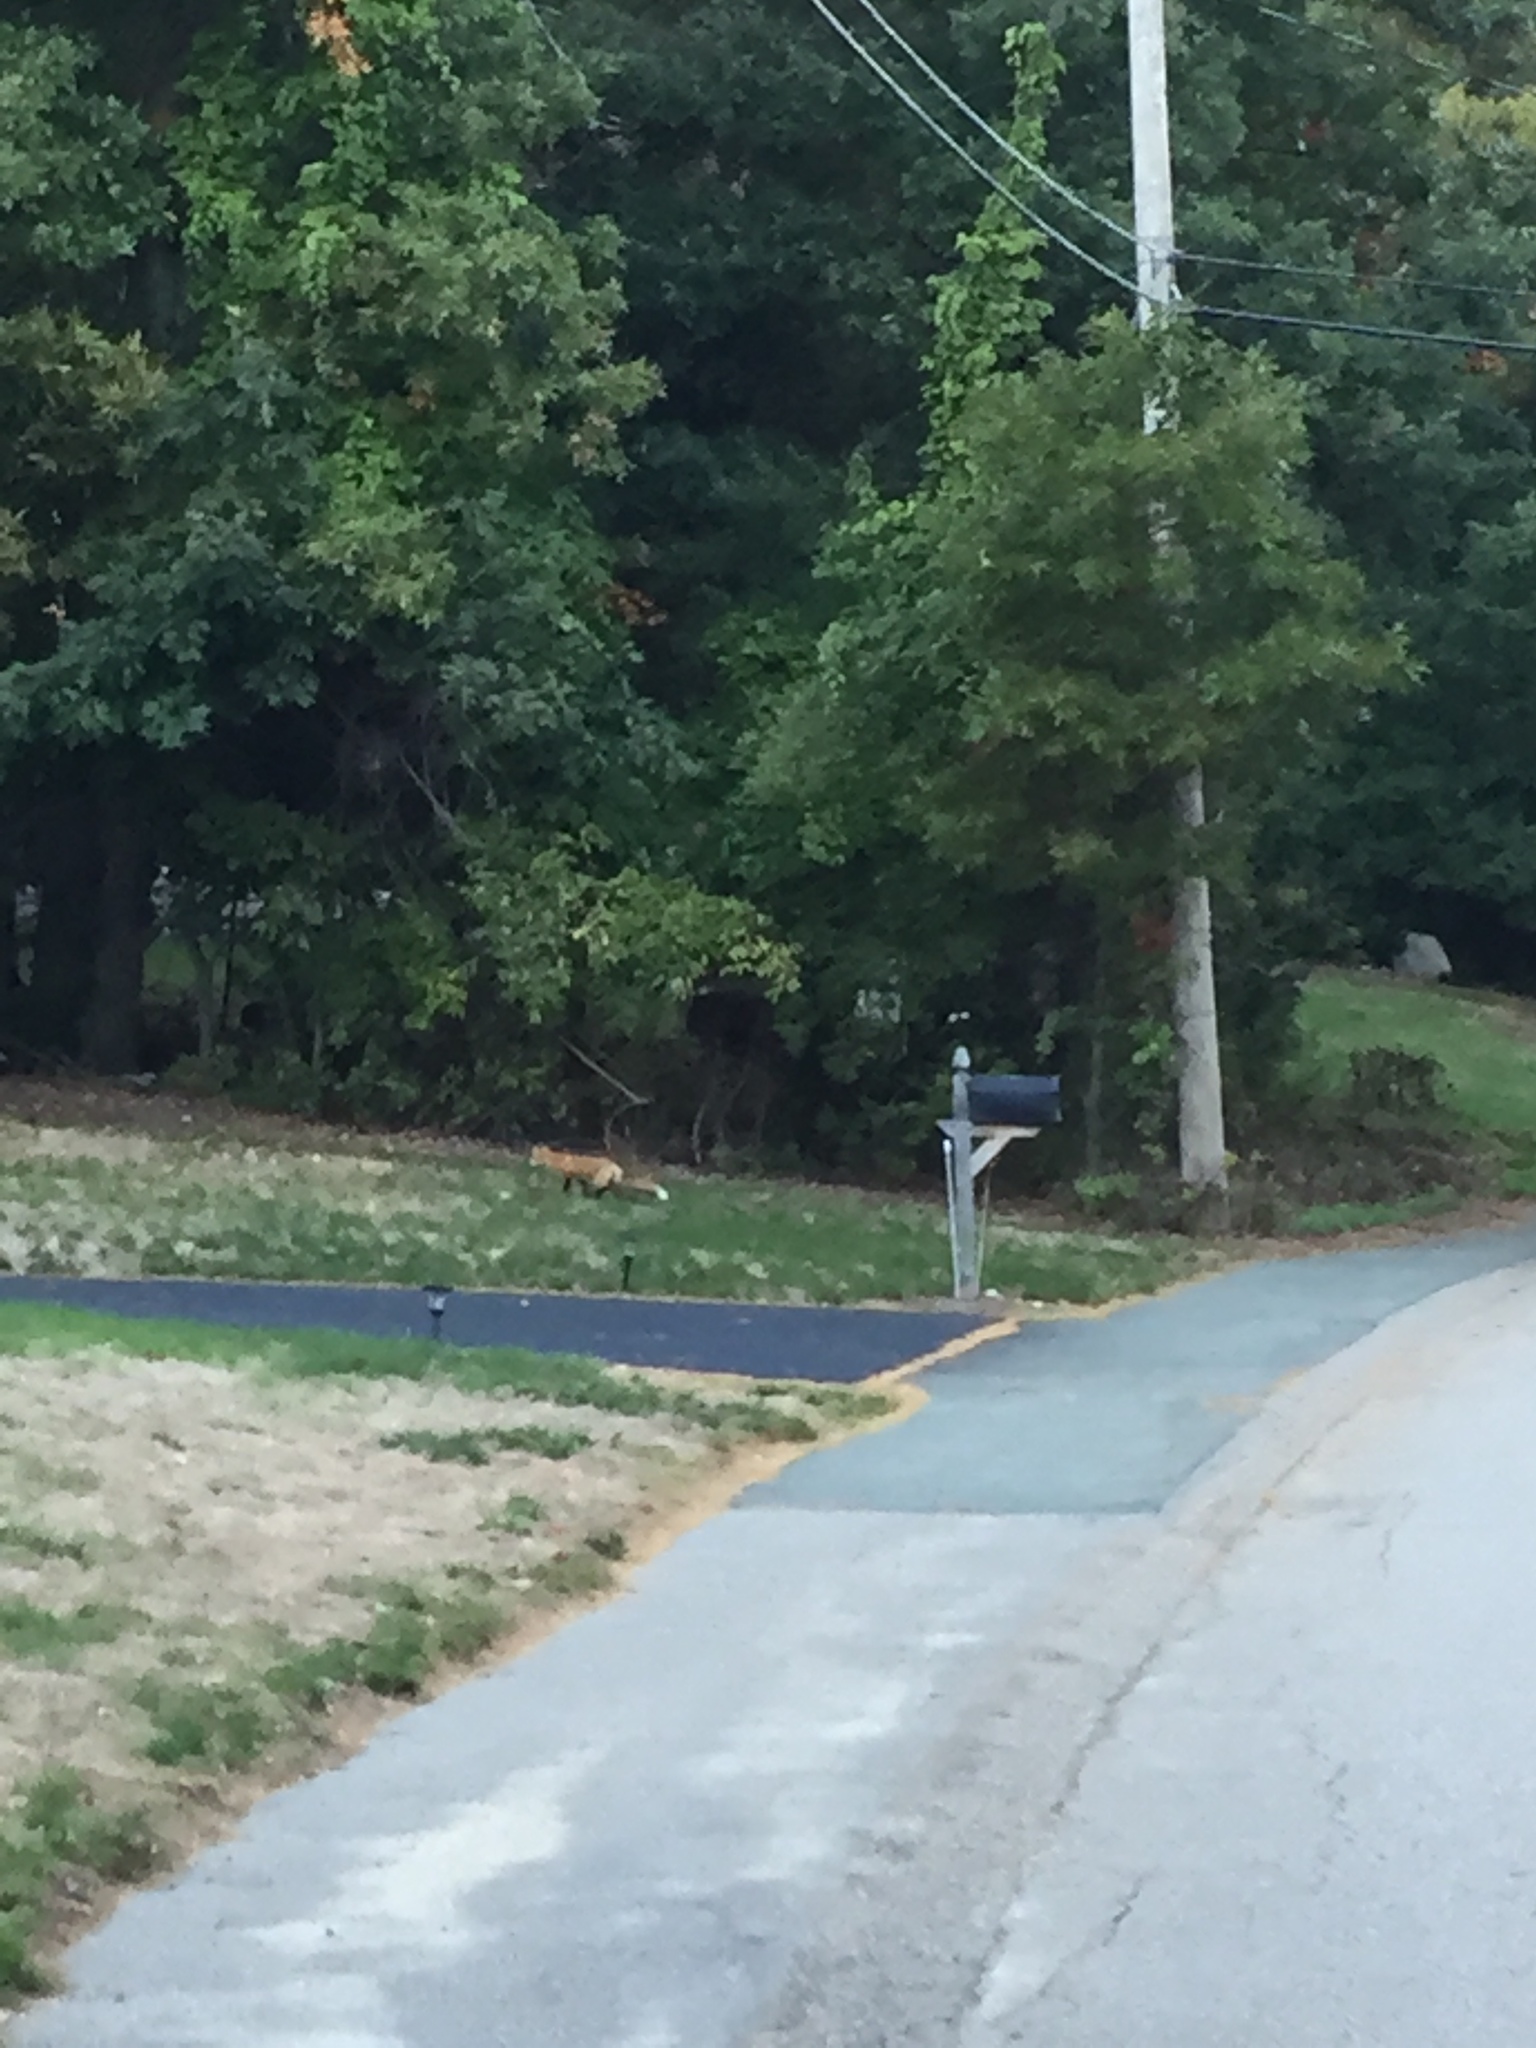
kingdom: Animalia
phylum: Chordata
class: Mammalia
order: Carnivora
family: Canidae
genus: Vulpes
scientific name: Vulpes vulpes
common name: Red fox
